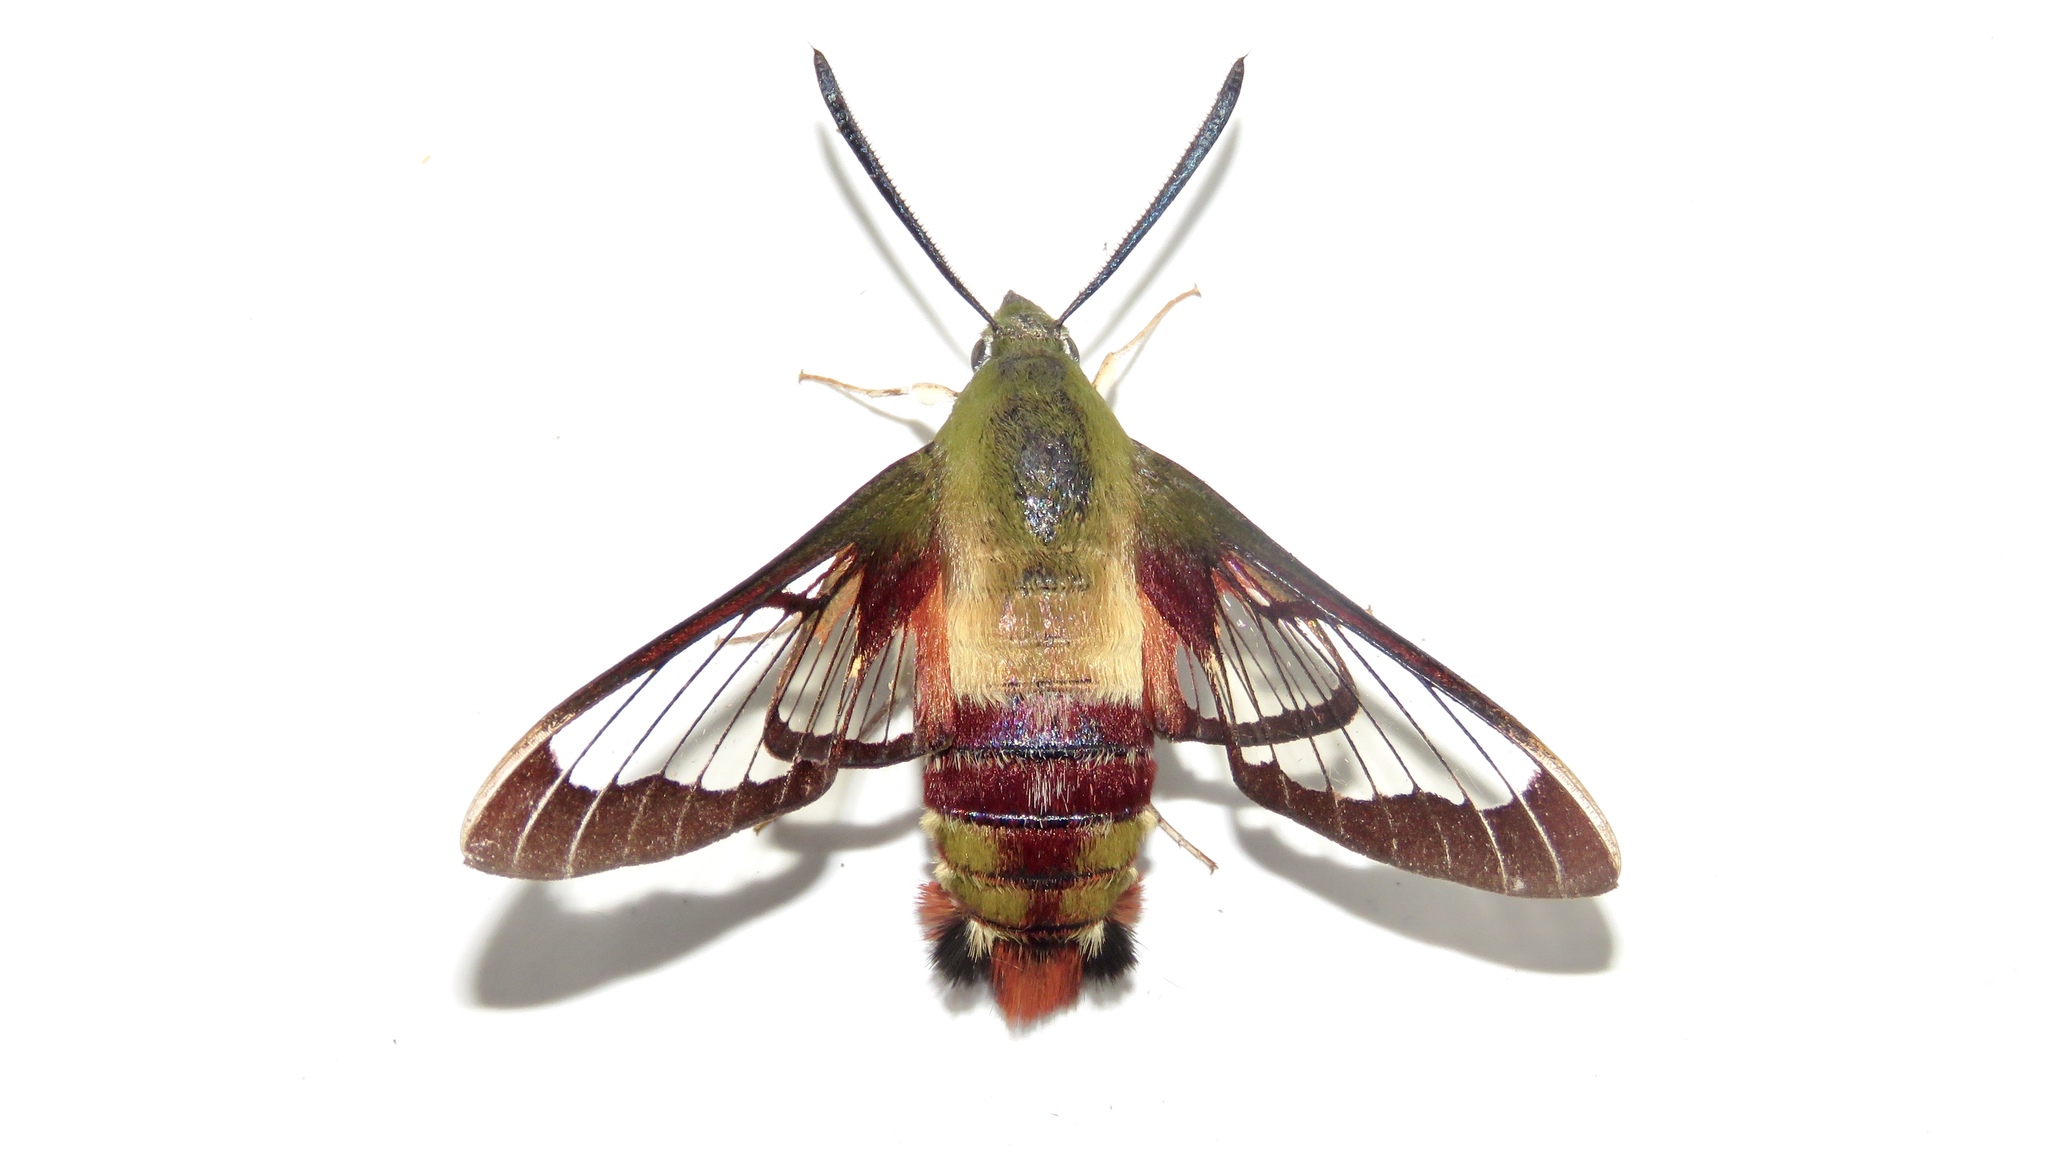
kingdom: Animalia
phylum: Arthropoda
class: Insecta
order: Lepidoptera
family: Sphingidae
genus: Hemaris
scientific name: Hemaris thysbe
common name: Common clear-wing
